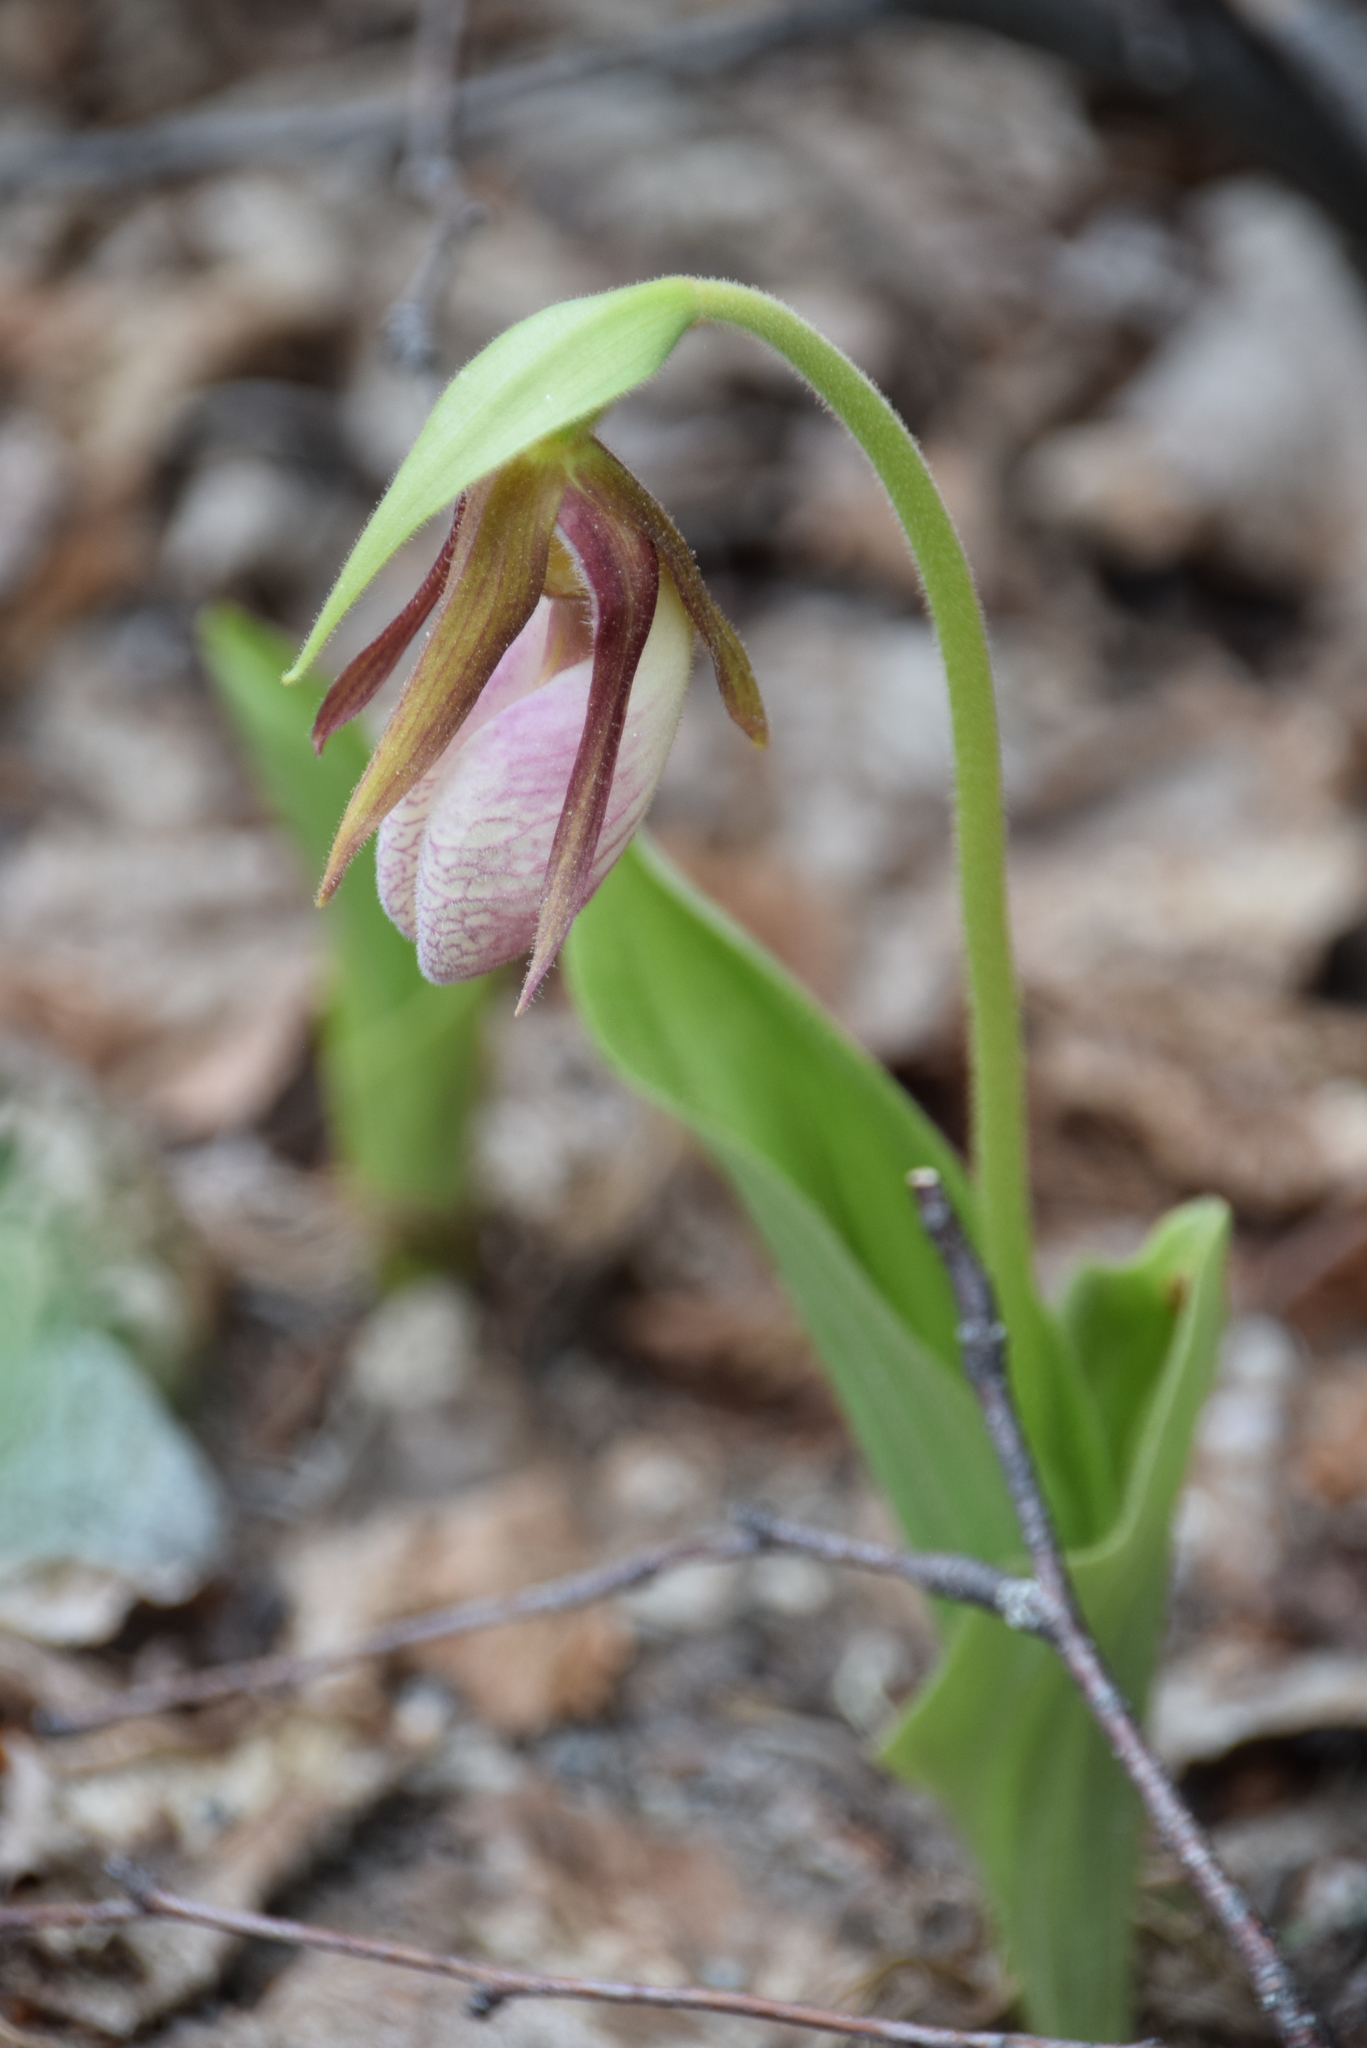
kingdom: Plantae
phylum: Tracheophyta
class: Liliopsida
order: Asparagales
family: Orchidaceae
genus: Cypripedium
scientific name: Cypripedium acaule
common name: Pink lady's-slipper
